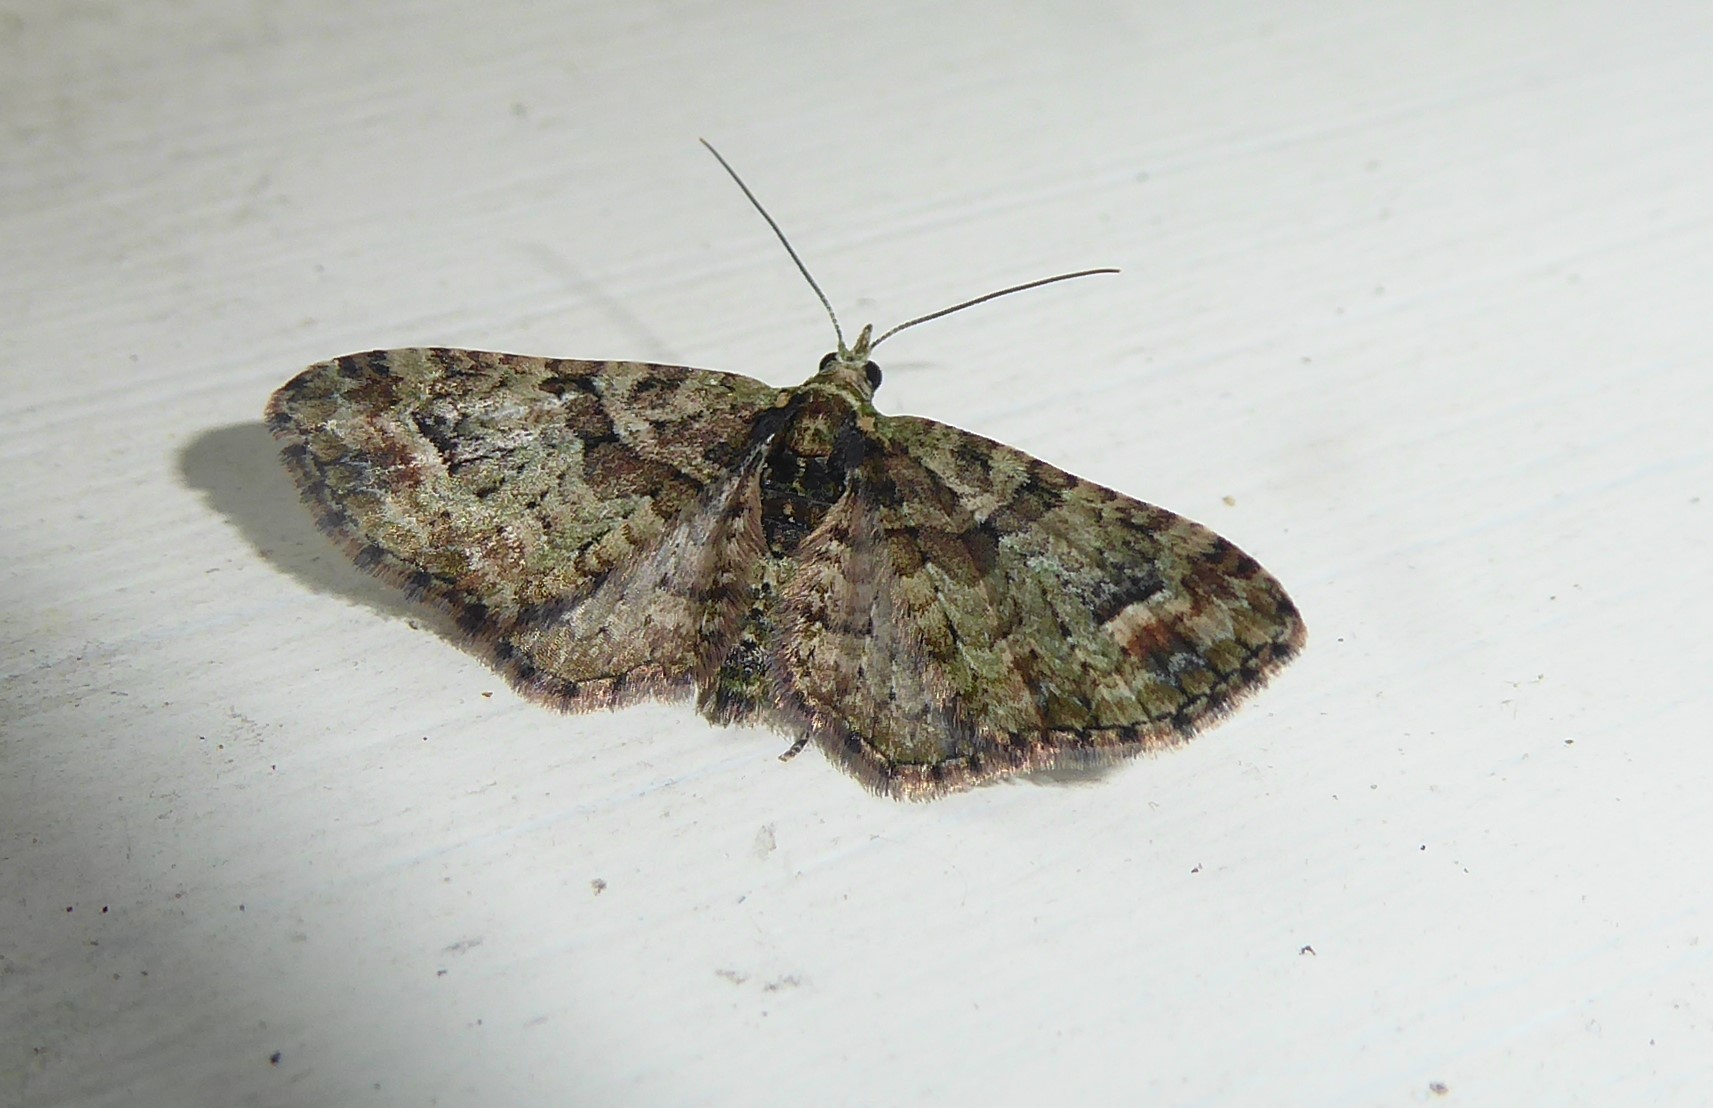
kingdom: Animalia
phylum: Arthropoda
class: Insecta
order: Lepidoptera
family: Geometridae
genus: Idaea
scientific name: Idaea mutanda
